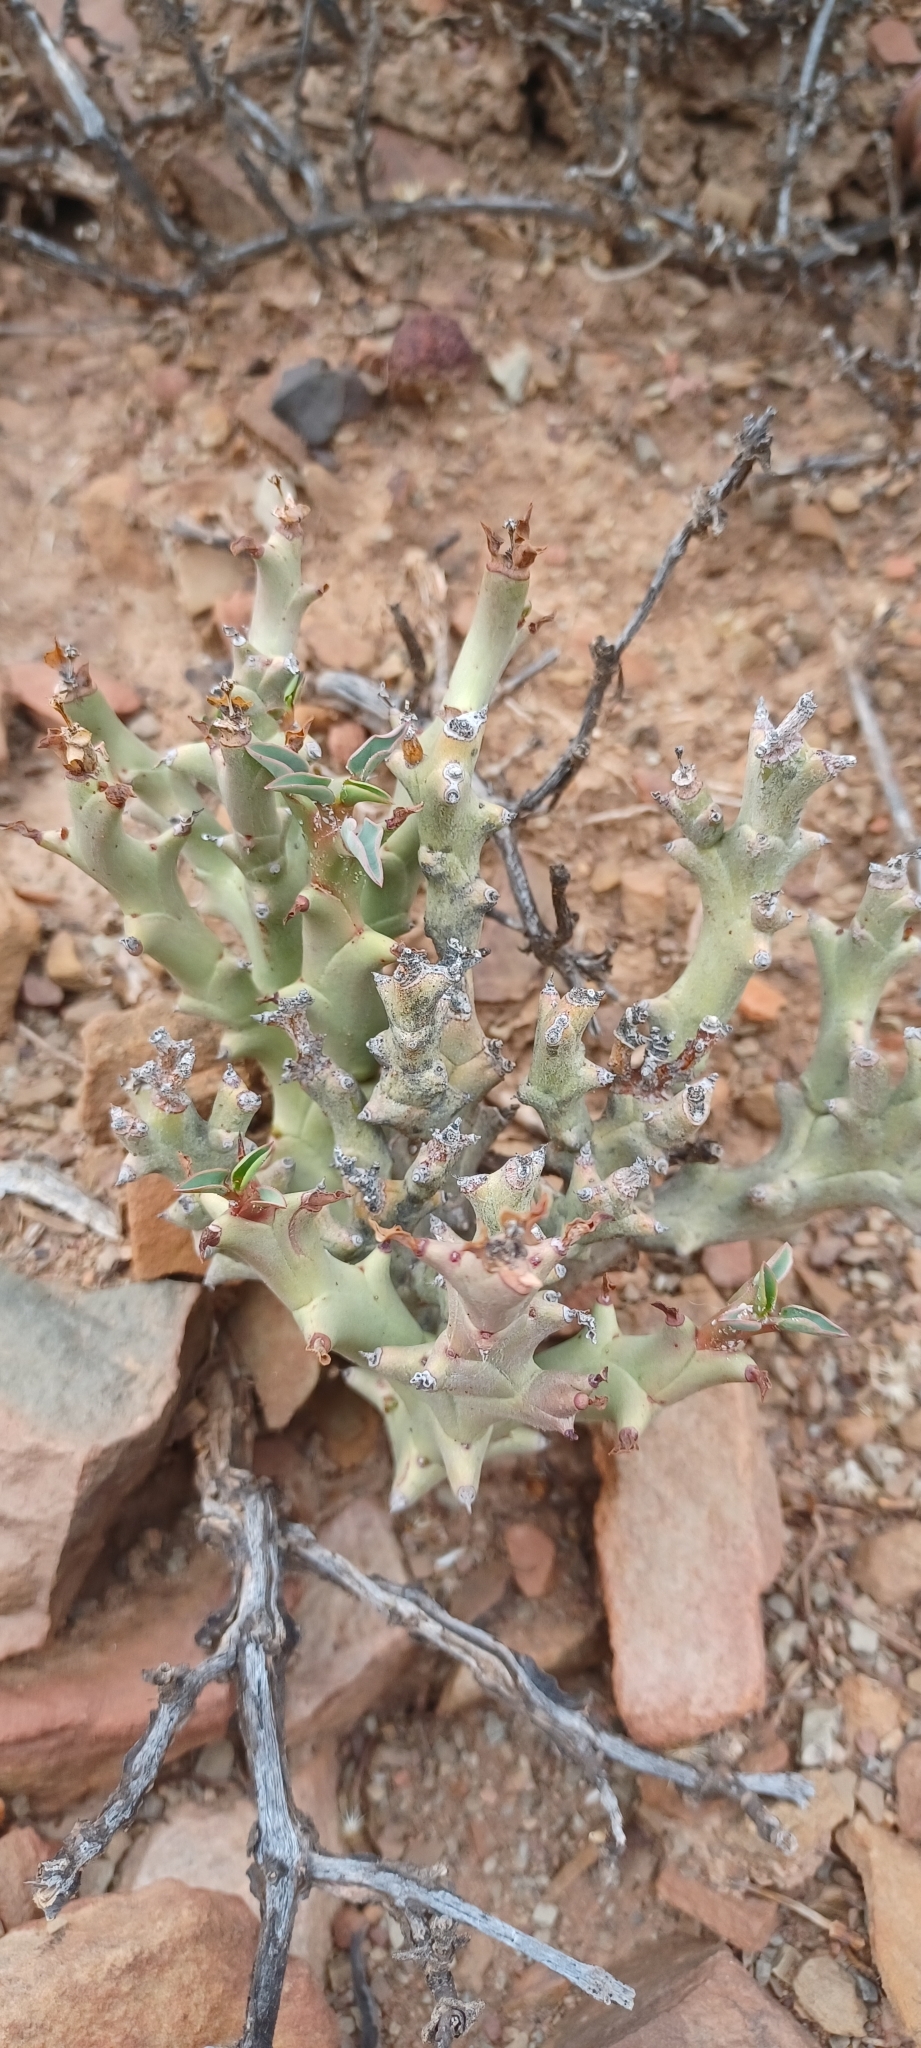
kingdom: Plantae
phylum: Tracheophyta
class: Magnoliopsida
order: Malpighiales
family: Euphorbiaceae
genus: Euphorbia
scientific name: Euphorbia hamata
